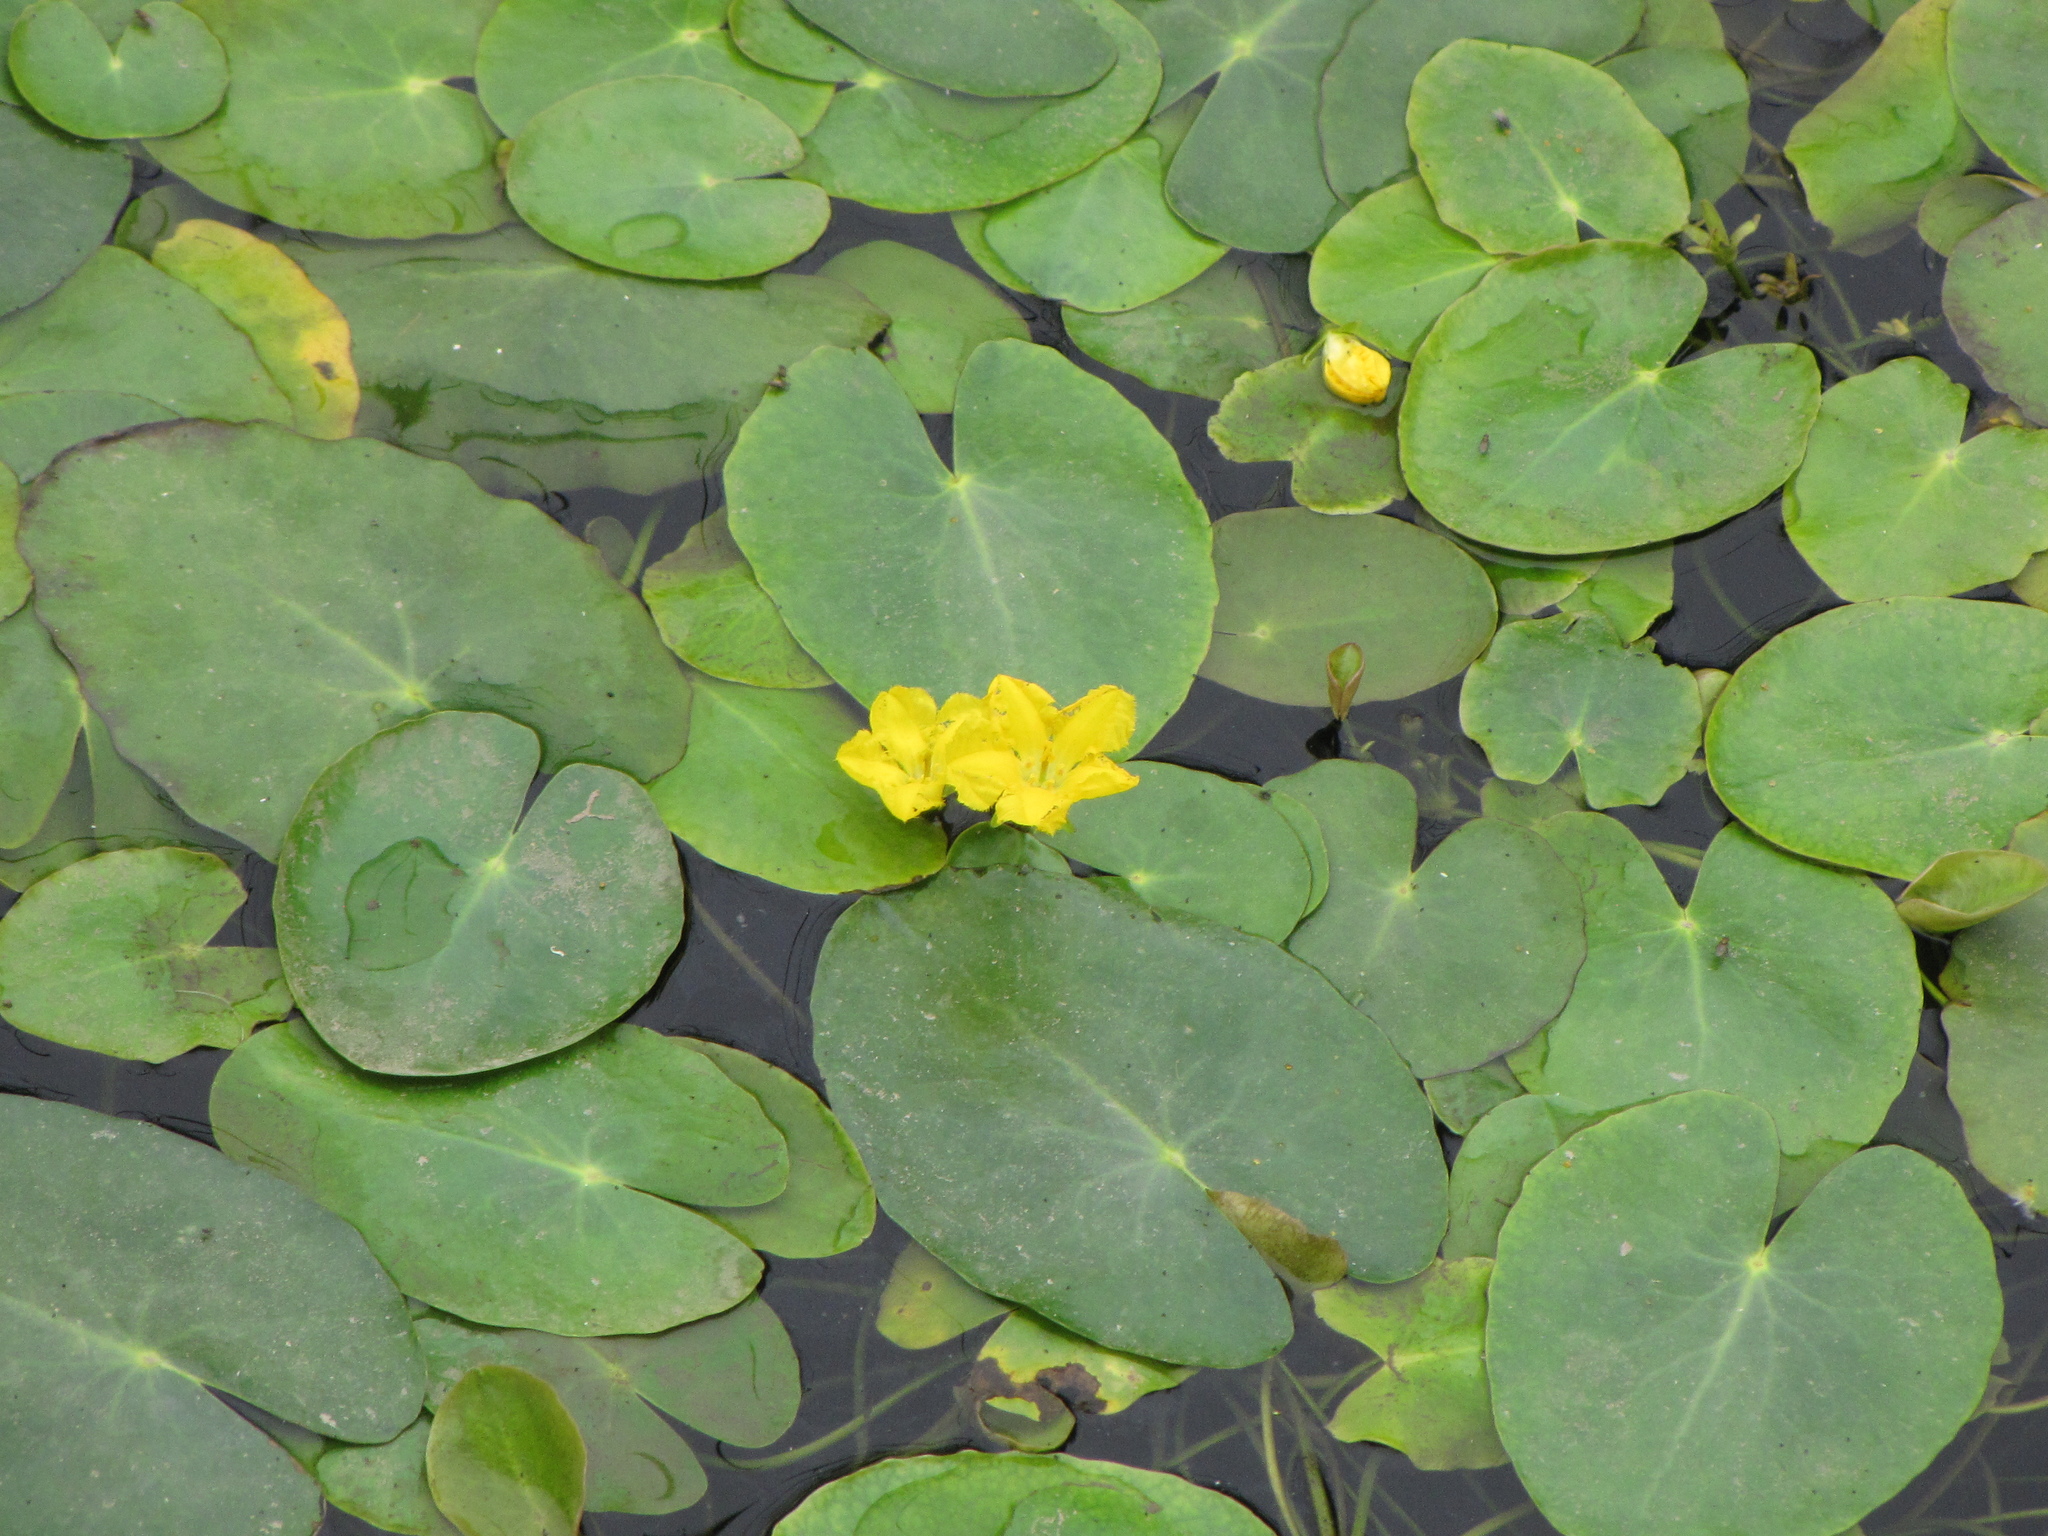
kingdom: Plantae
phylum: Tracheophyta
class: Magnoliopsida
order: Asterales
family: Menyanthaceae
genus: Nymphoides
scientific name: Nymphoides peltata
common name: Fringed water-lily
